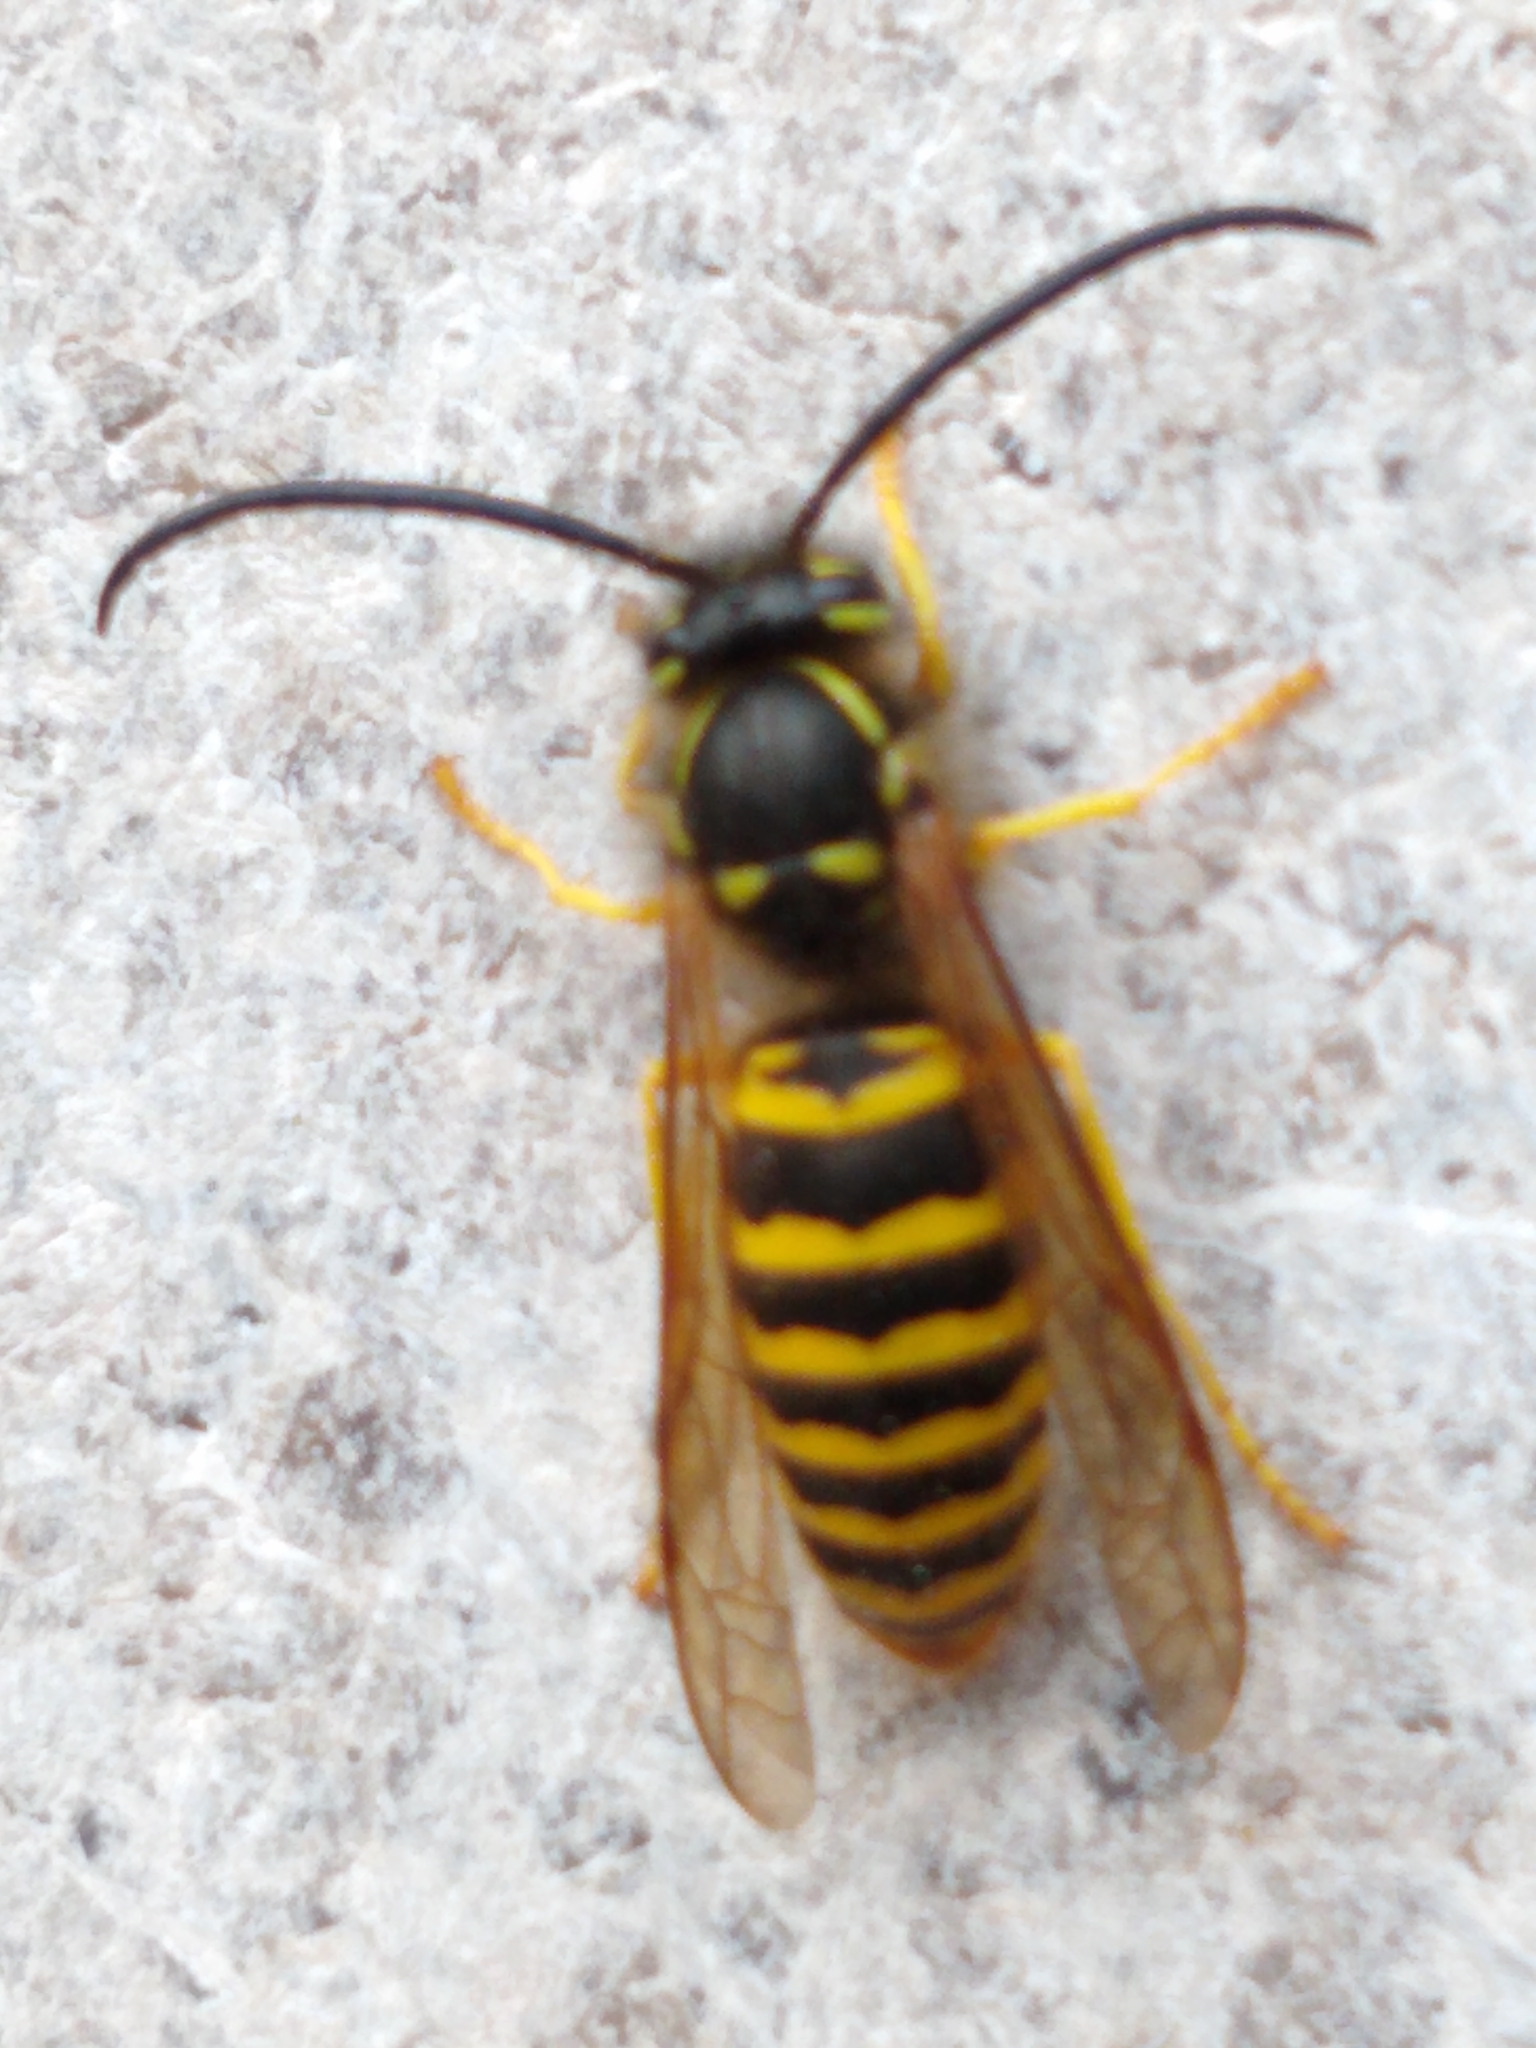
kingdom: Animalia
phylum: Arthropoda
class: Insecta
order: Hymenoptera
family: Vespidae
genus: Vespula
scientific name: Vespula maculifrons
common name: Eastern yellowjacket
